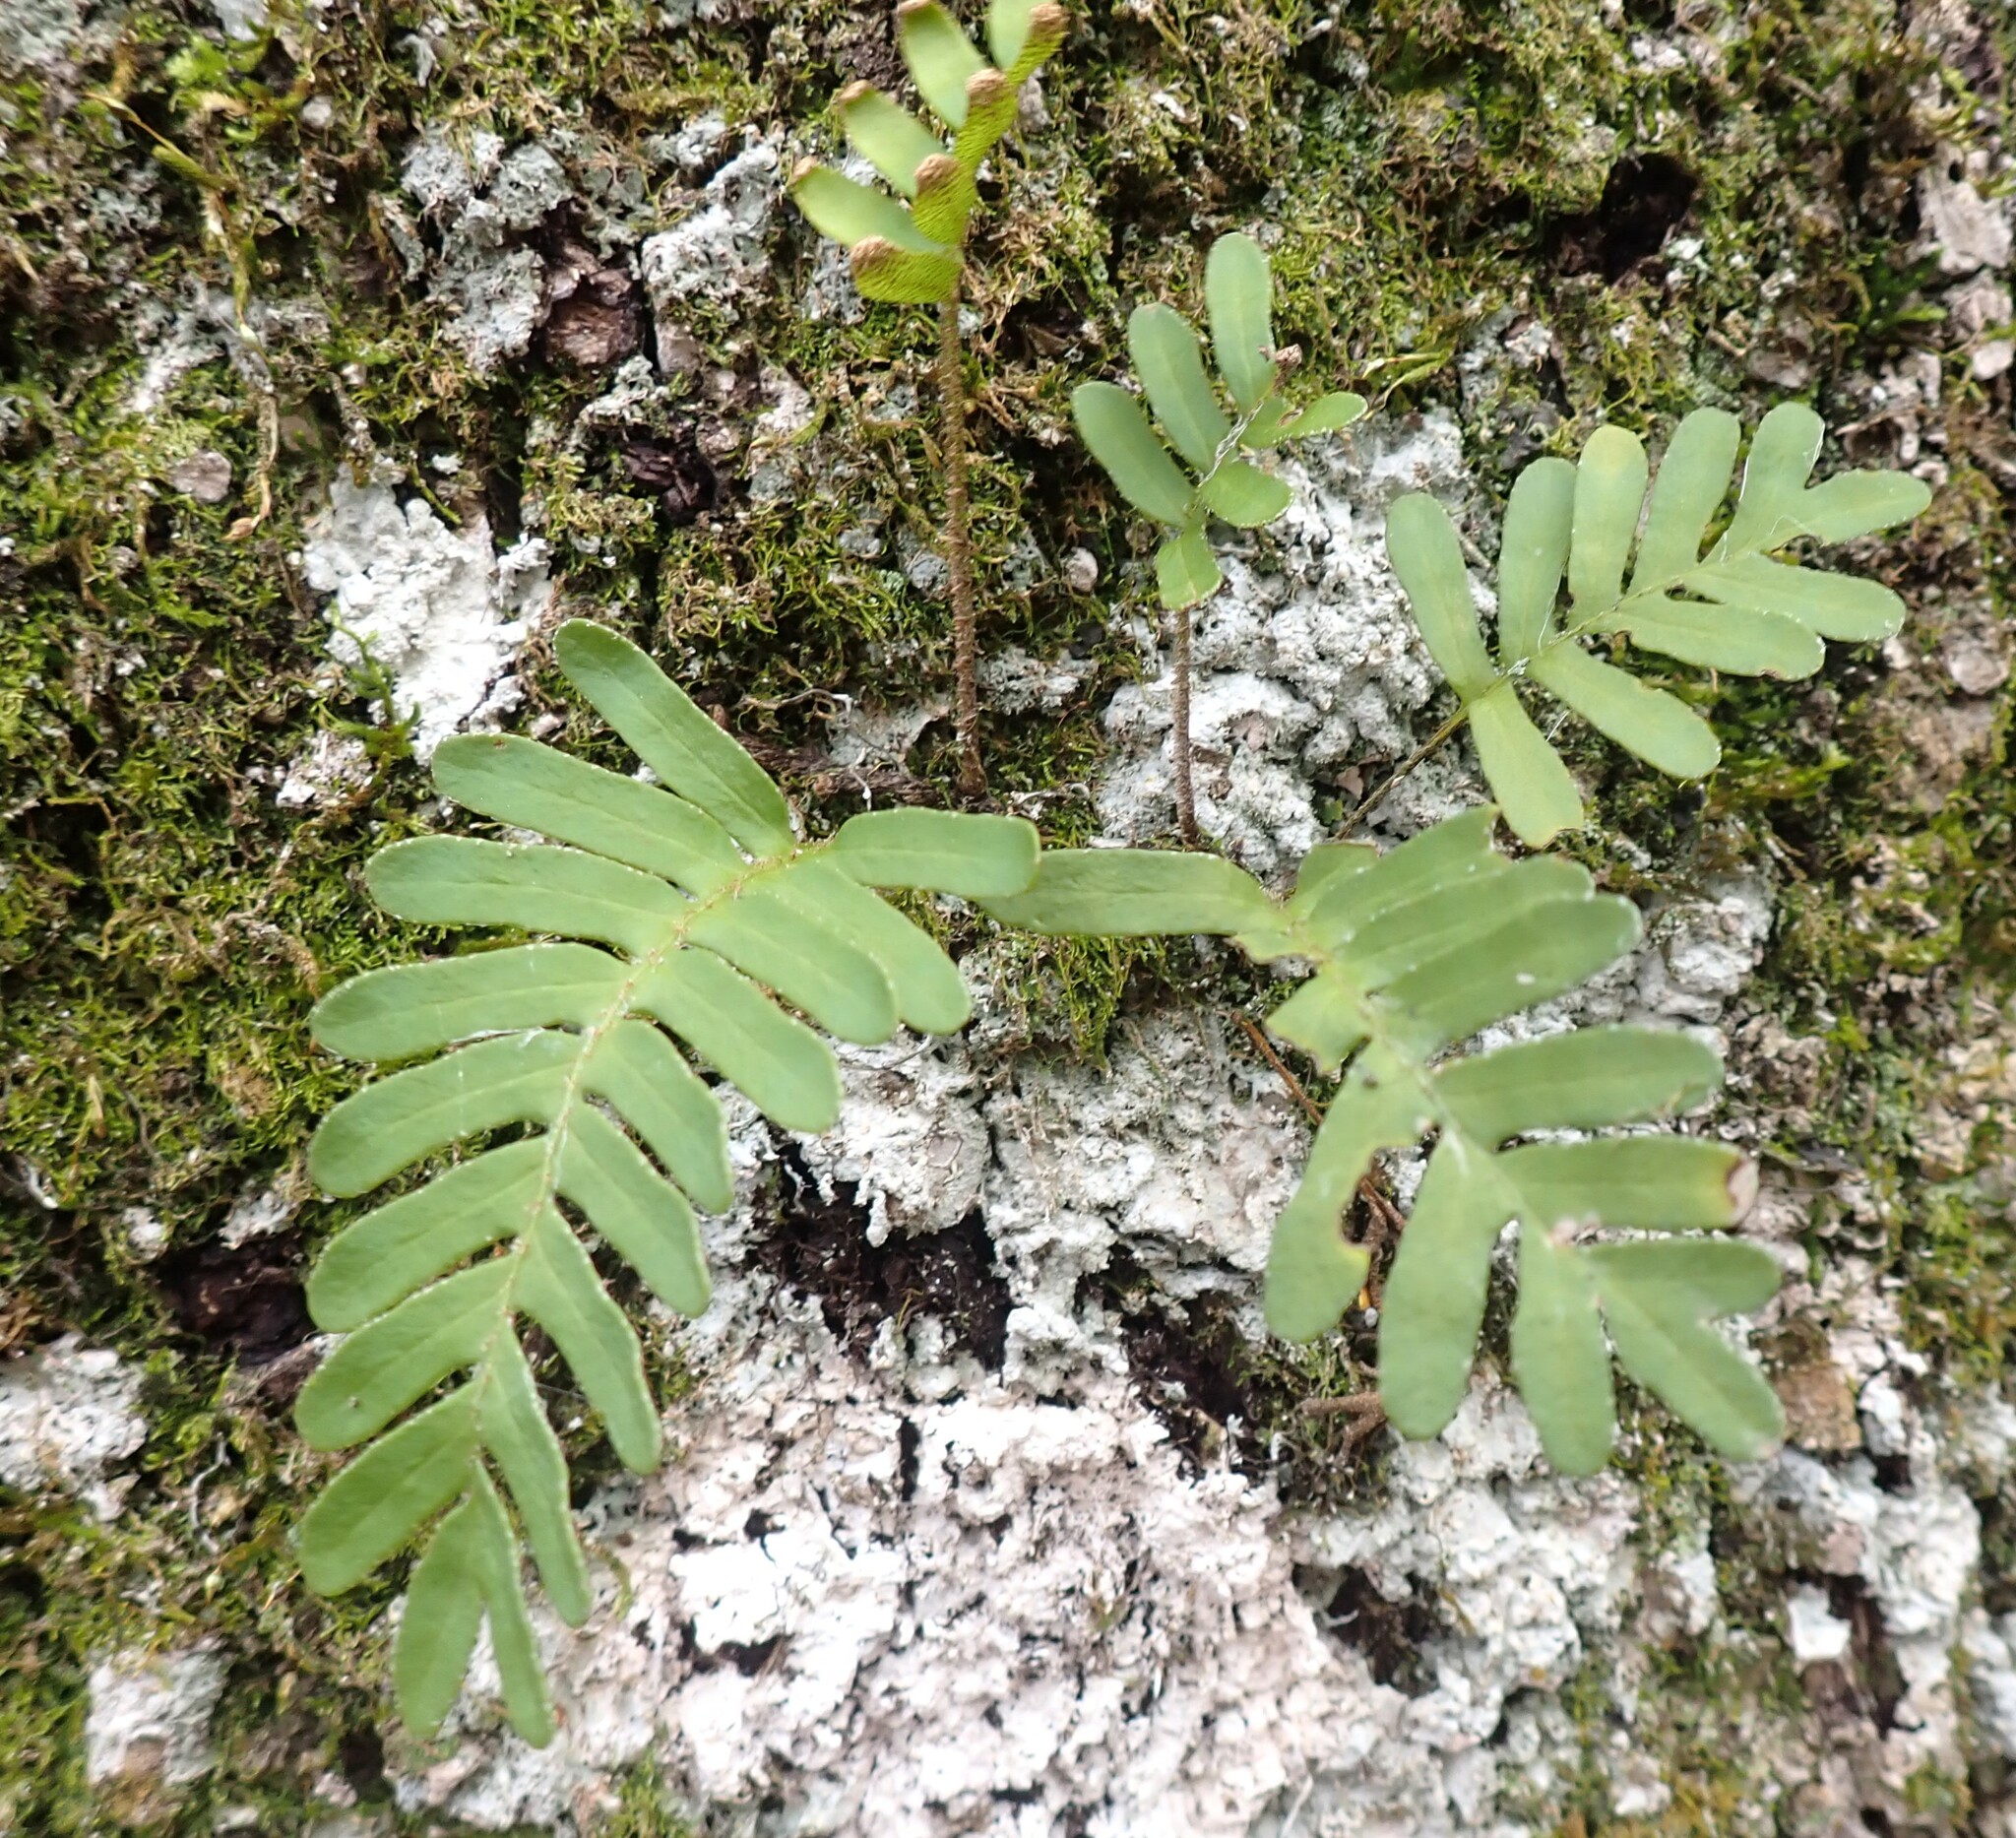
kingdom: Plantae
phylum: Tracheophyta
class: Polypodiopsida
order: Polypodiales
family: Polypodiaceae
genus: Pleopeltis
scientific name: Pleopeltis michauxiana
